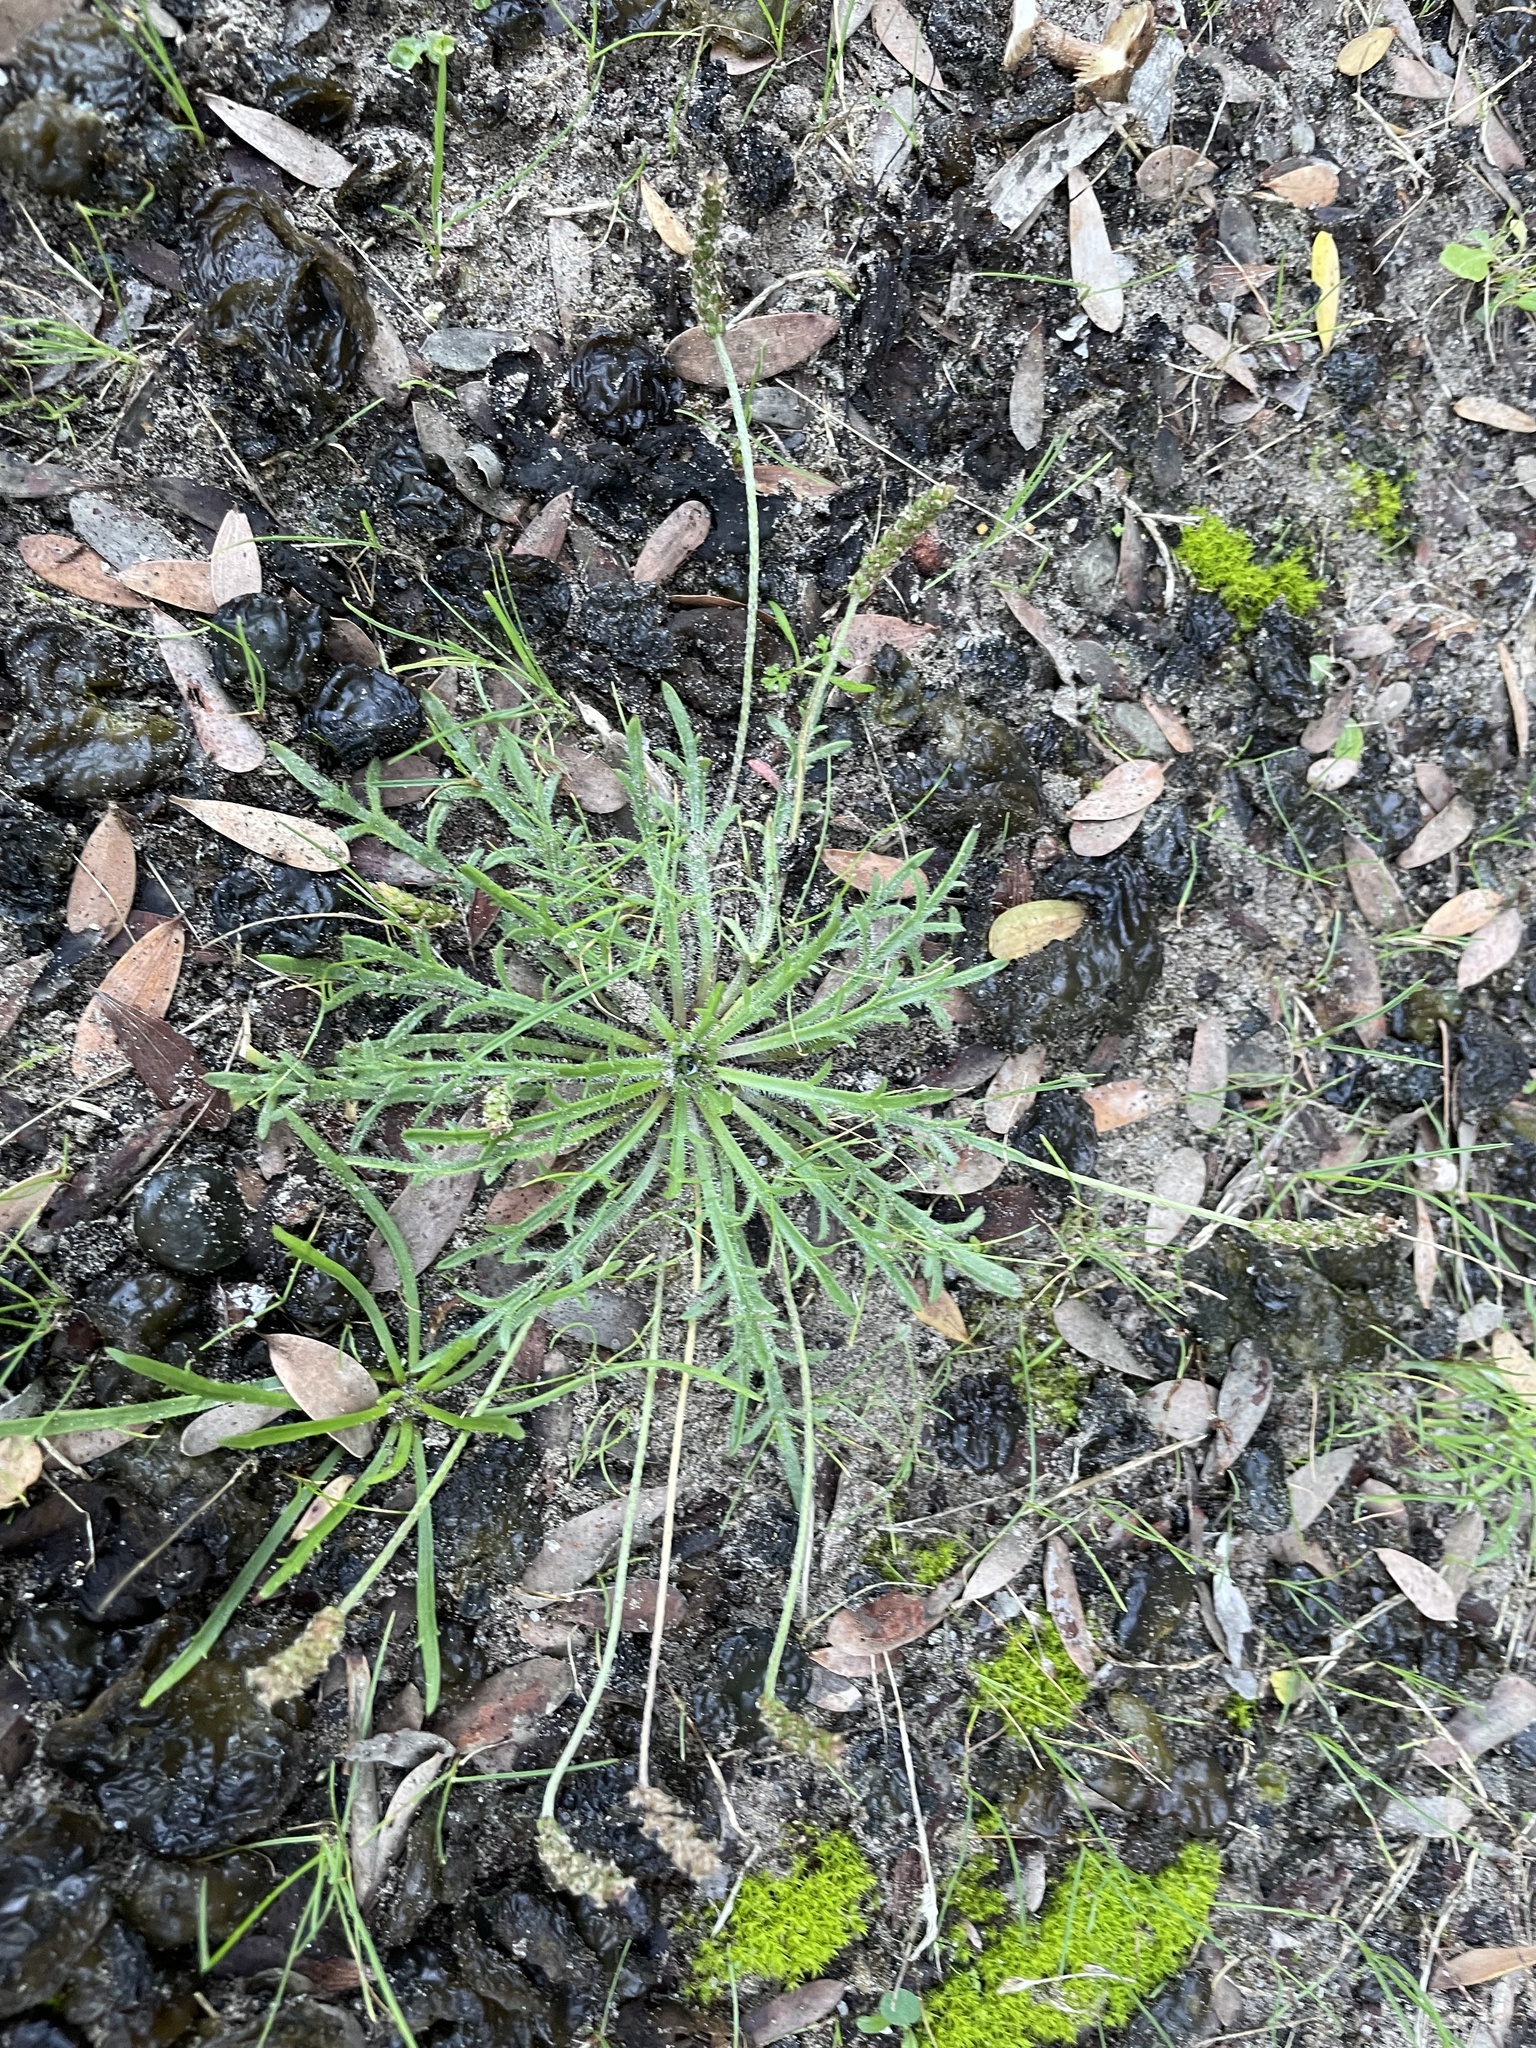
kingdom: Plantae
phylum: Tracheophyta
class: Magnoliopsida
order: Lamiales
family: Plantaginaceae
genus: Plantago
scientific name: Plantago coronopus
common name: Buck's-horn plantain
